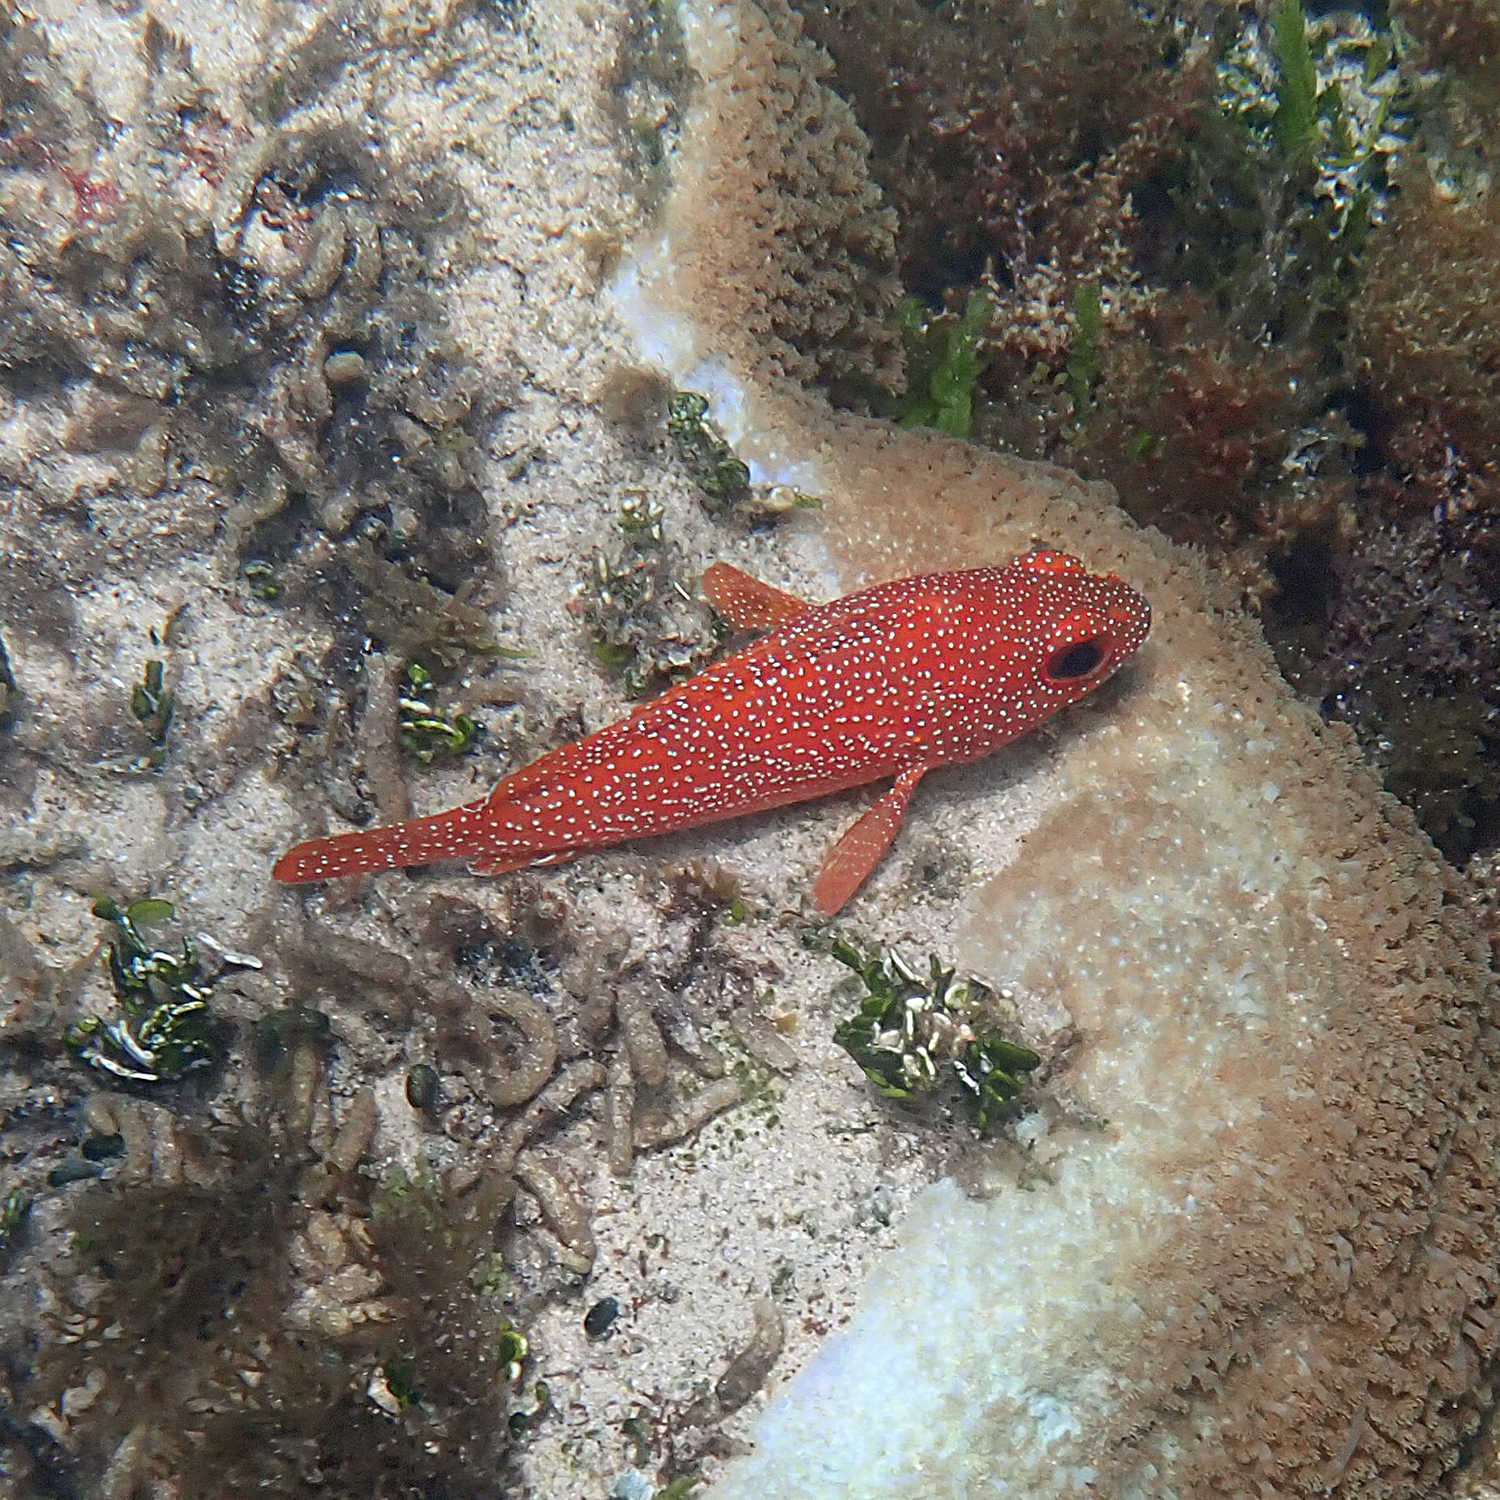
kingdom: Animalia
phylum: Chordata
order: Perciformes
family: Serranidae
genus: Trachypoma
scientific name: Trachypoma macracanthus
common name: Toadstool grouper
